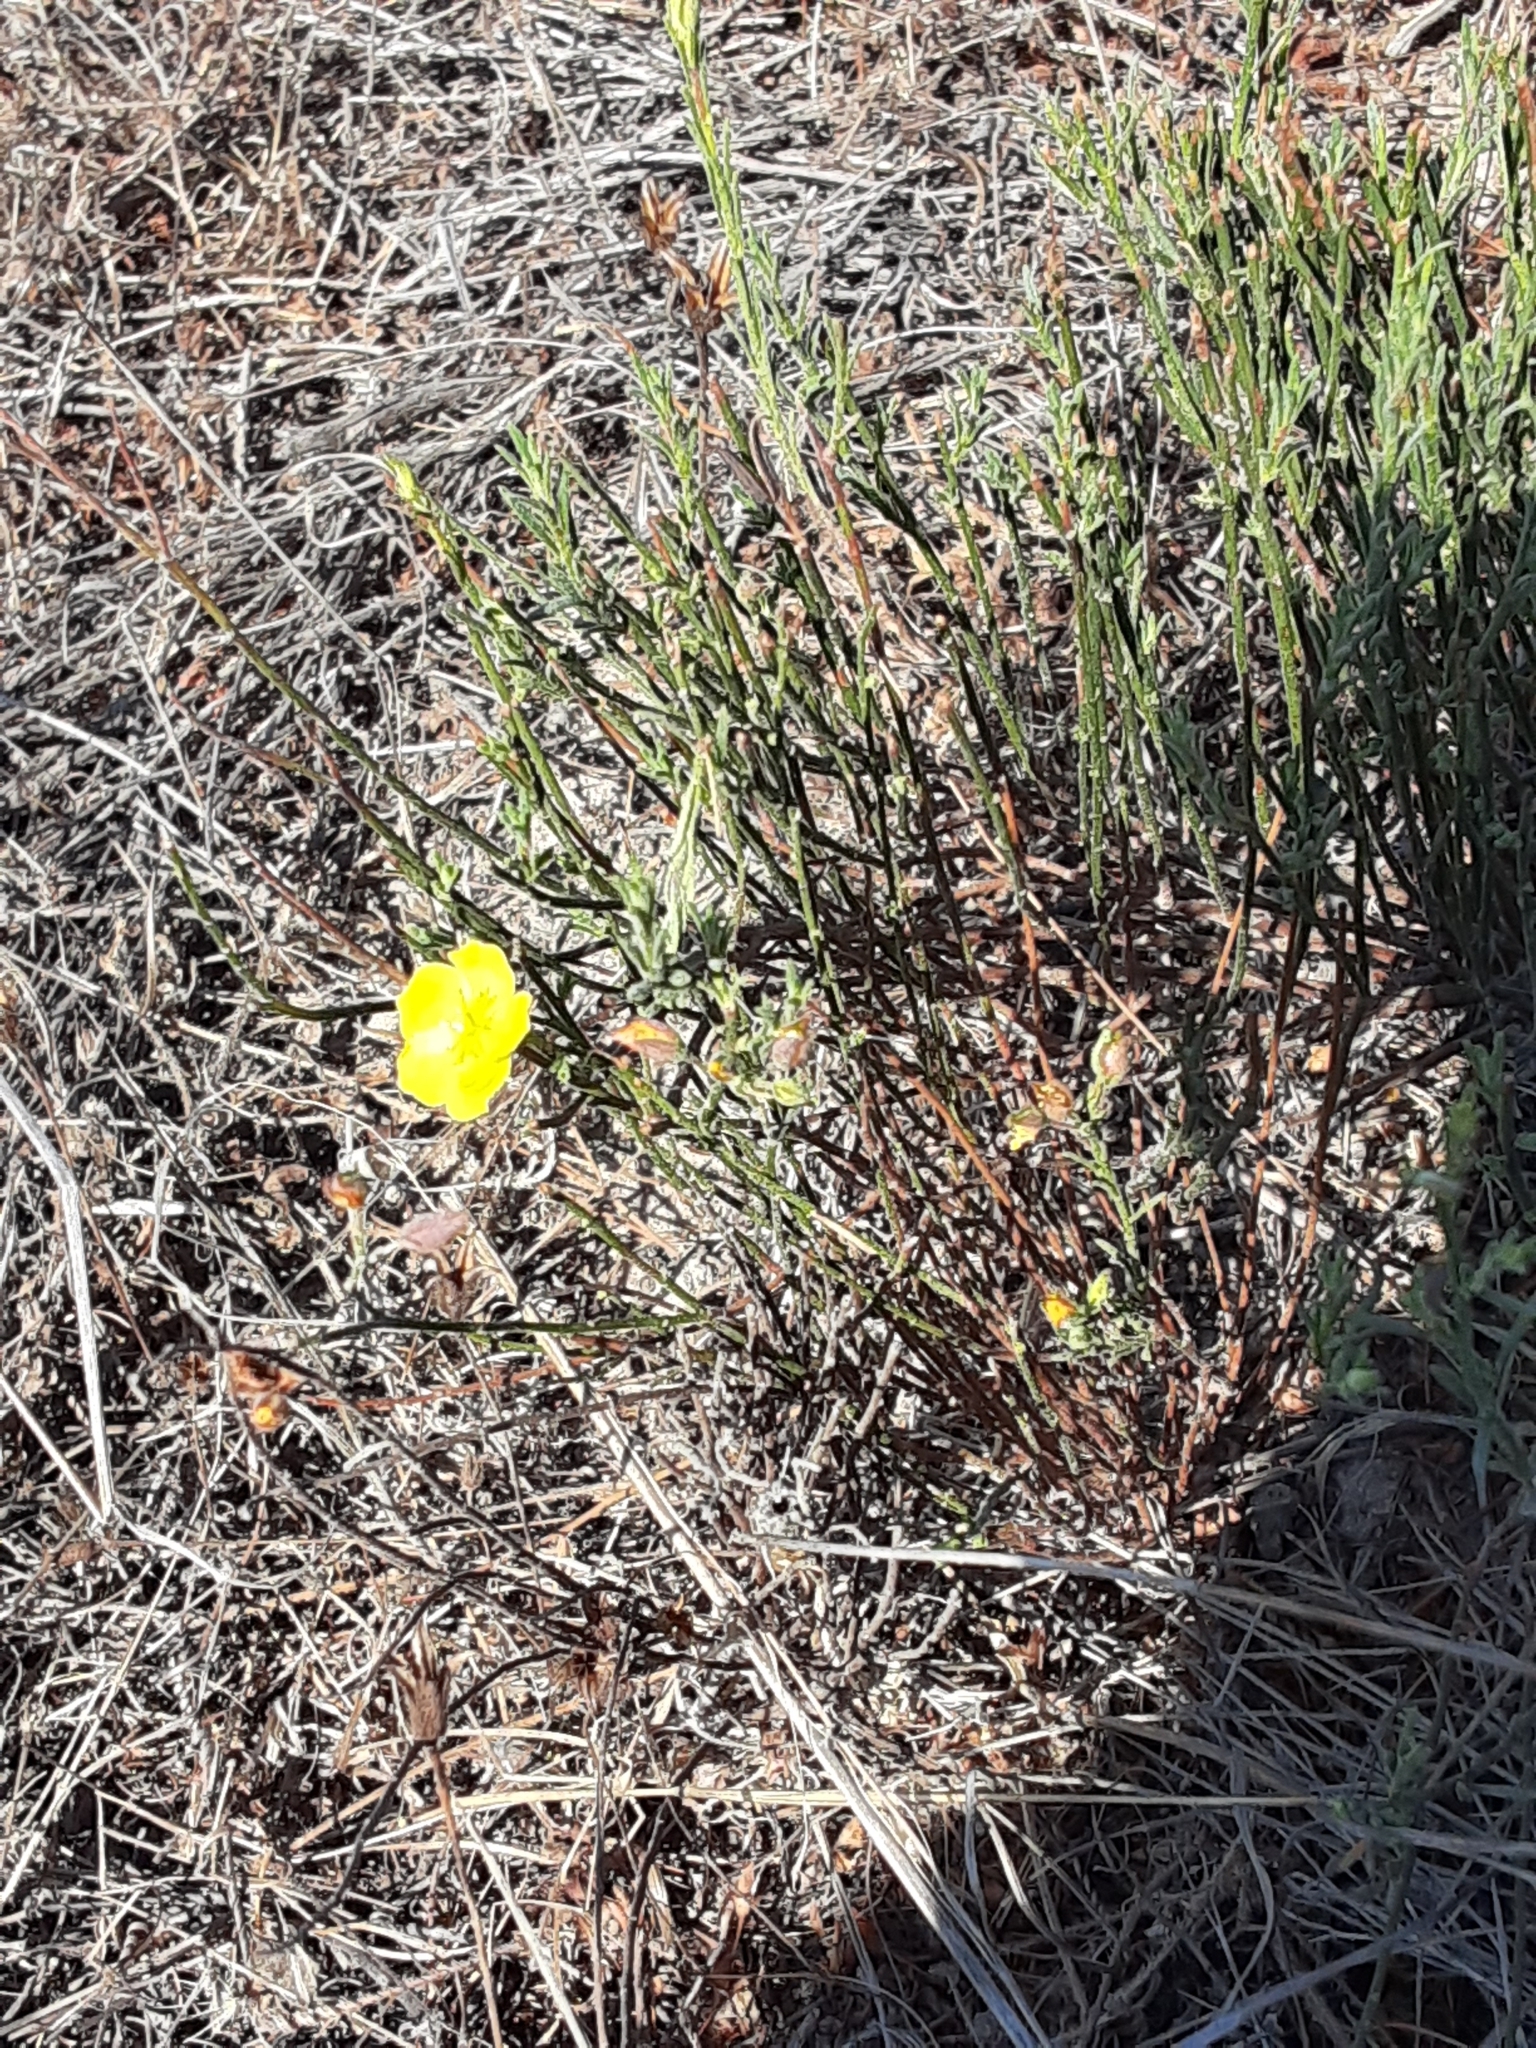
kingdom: Plantae
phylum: Tracheophyta
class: Magnoliopsida
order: Malvales
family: Cistaceae
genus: Crocanthemum
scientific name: Crocanthemum scoparium
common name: Broom-rose
